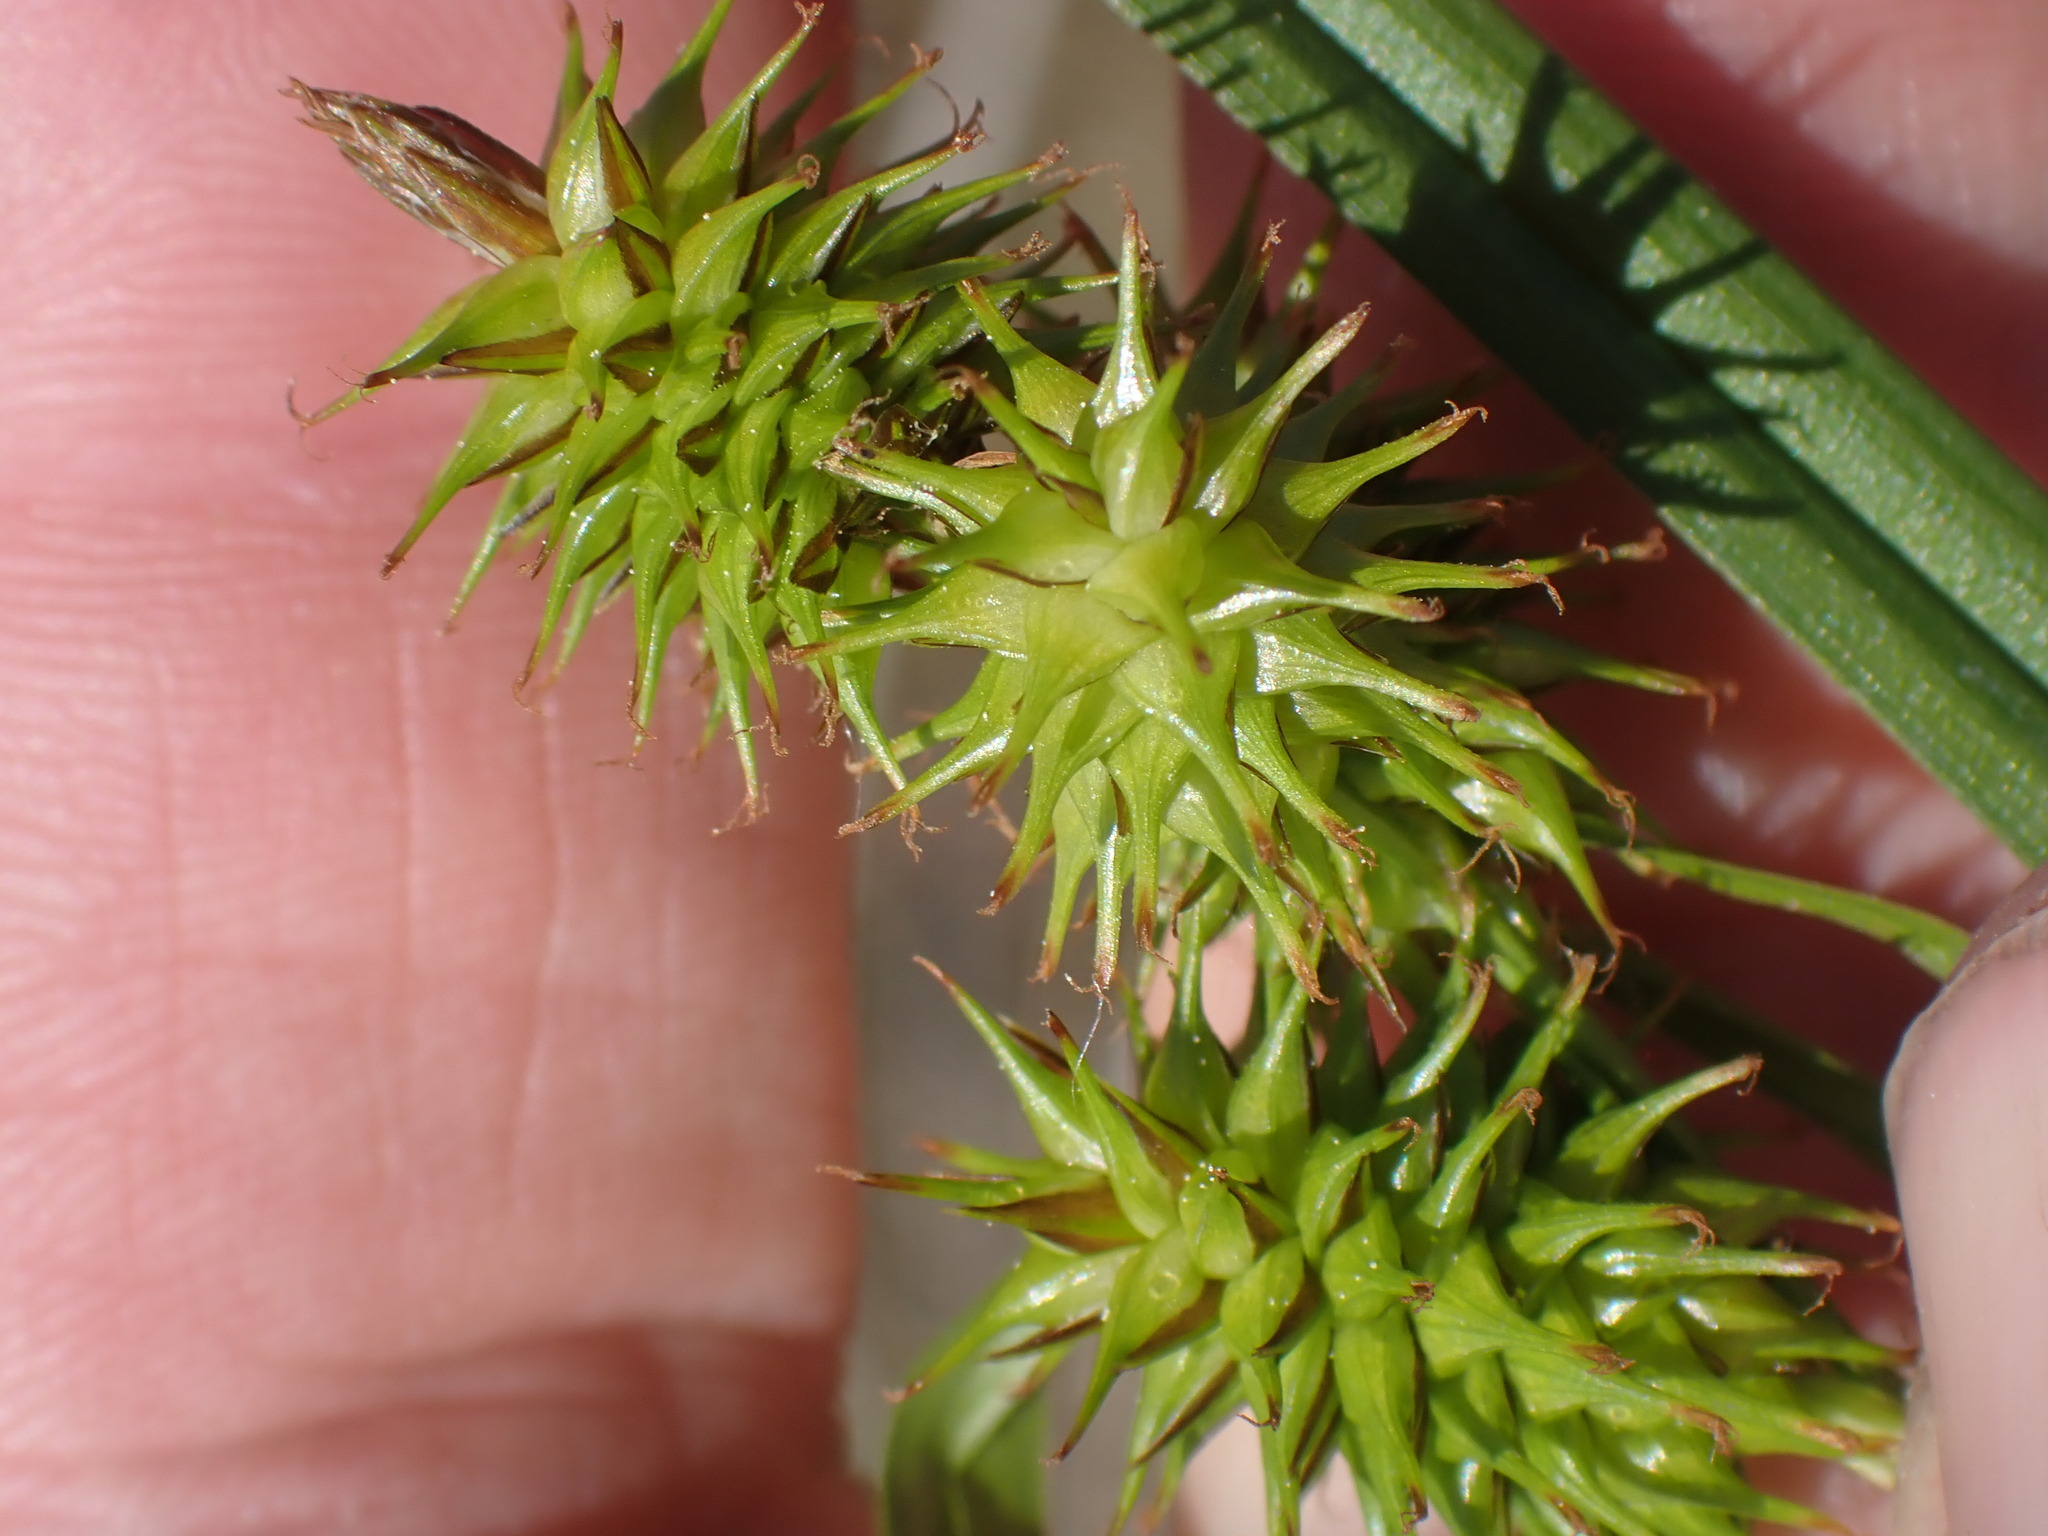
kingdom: Plantae
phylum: Tracheophyta
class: Liliopsida
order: Poales
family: Cyperaceae
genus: Carex
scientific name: Carex flava
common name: Large yellow-sedge
